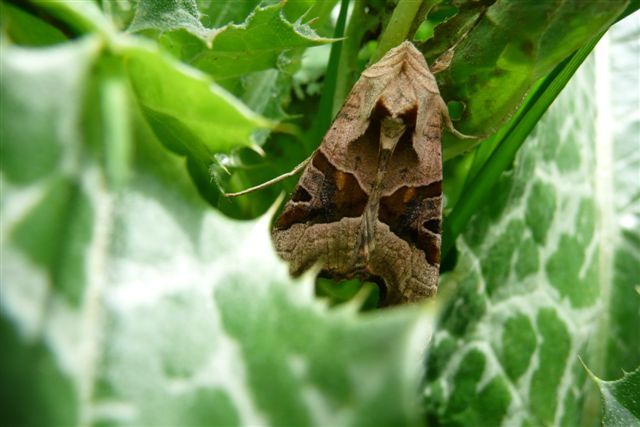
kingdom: Animalia
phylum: Arthropoda
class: Insecta
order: Lepidoptera
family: Noctuidae
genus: Phlogophora
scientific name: Phlogophora meticulosa
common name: Angle shades
